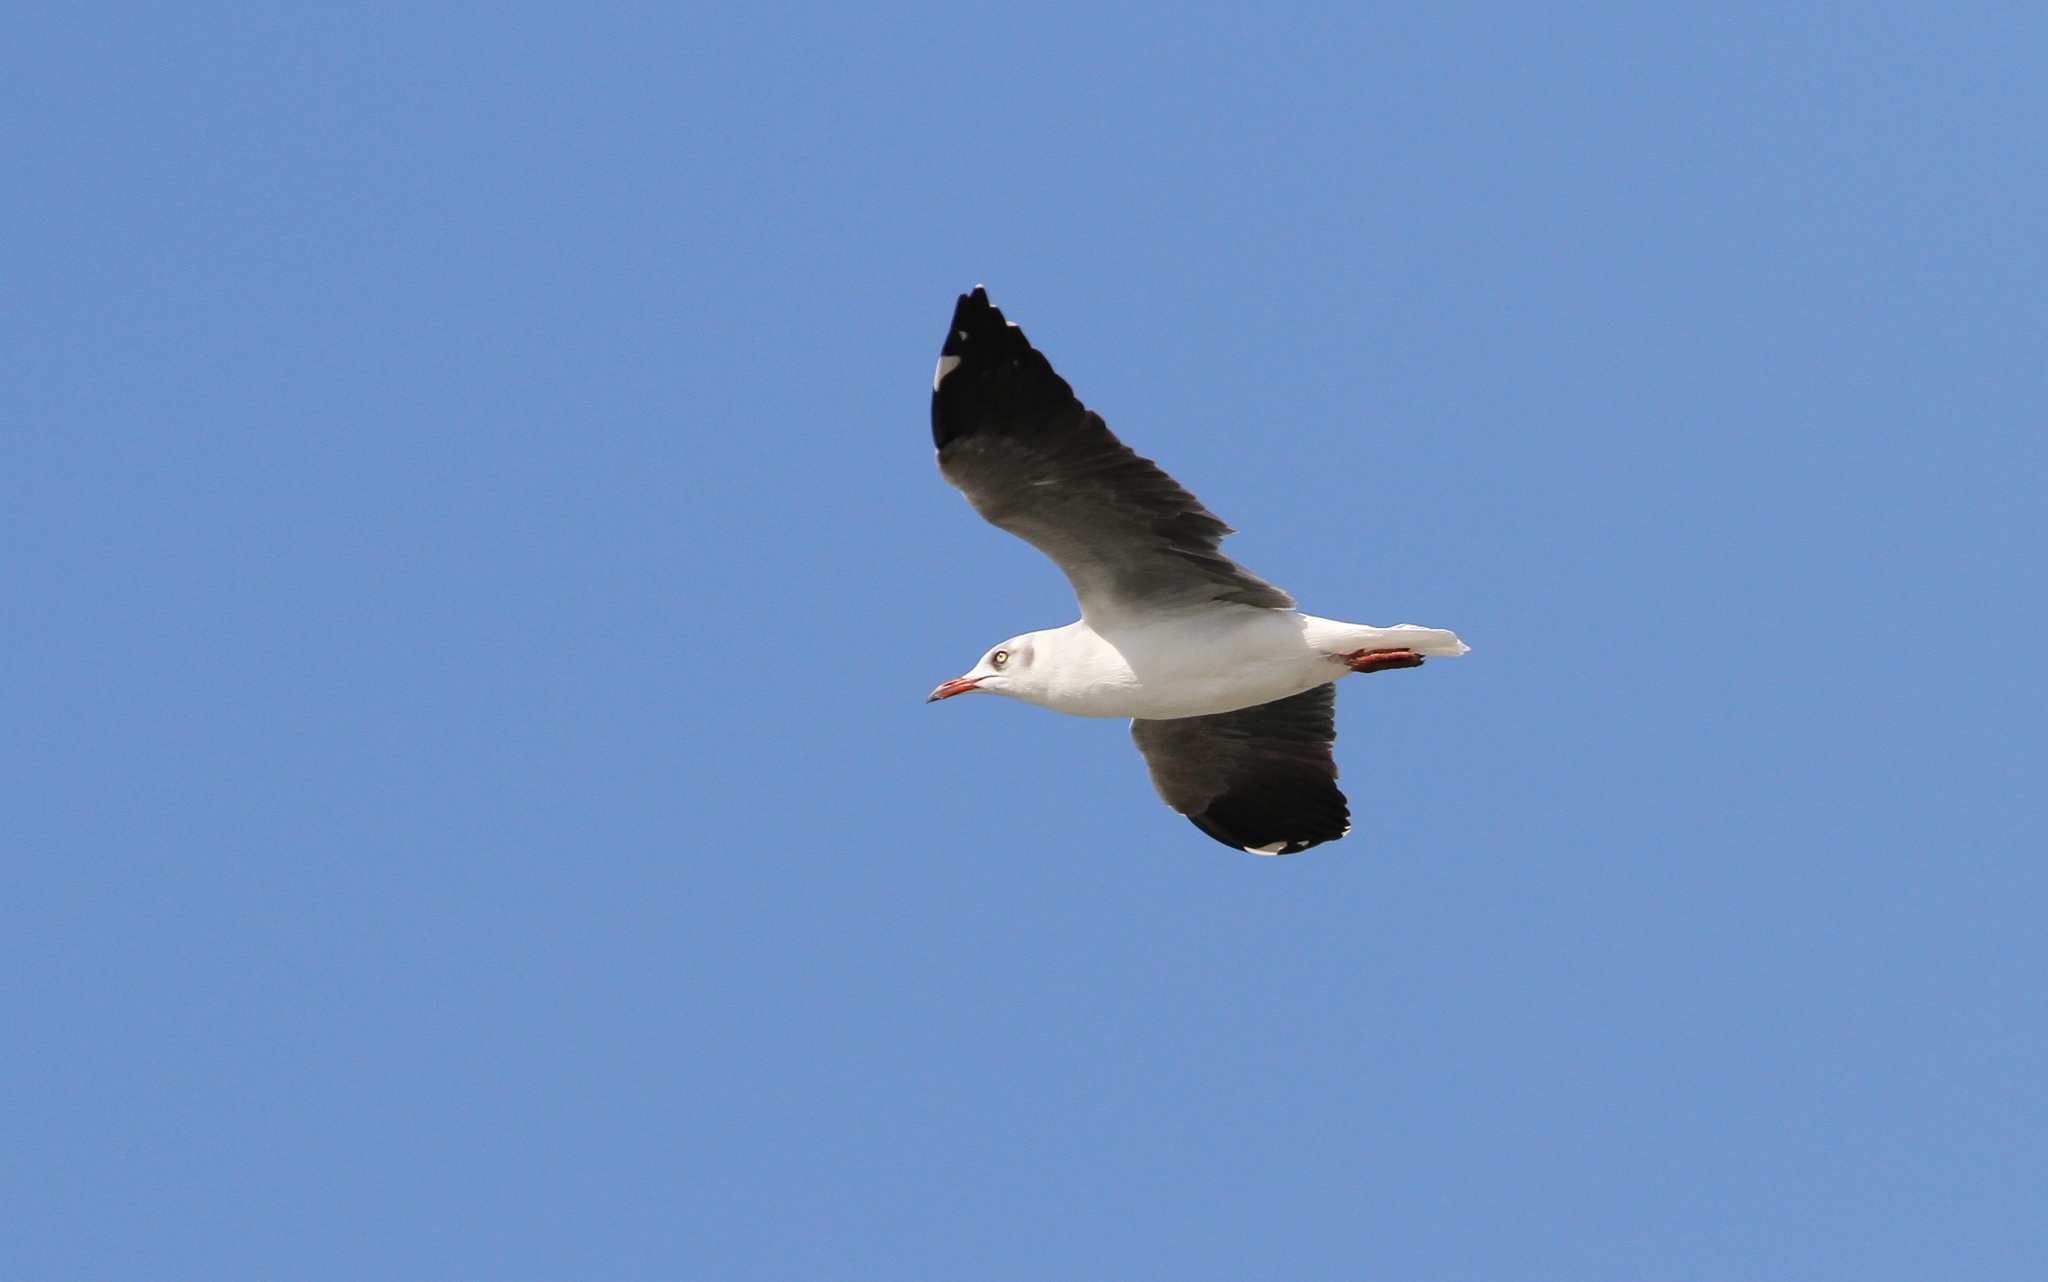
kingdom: Animalia
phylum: Chordata
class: Aves
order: Charadriiformes
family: Laridae
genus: Chroicocephalus
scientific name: Chroicocephalus cirrocephalus
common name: Grey-headed gull
